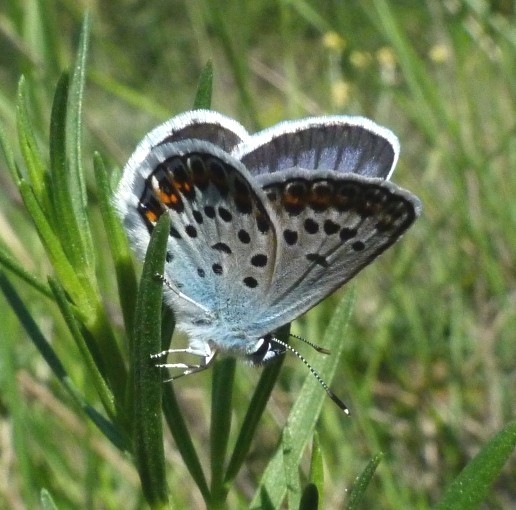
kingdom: Animalia
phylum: Arthropoda
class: Insecta
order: Lepidoptera
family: Lycaenidae
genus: Plebejus
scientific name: Plebejus argus
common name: Silver-studded blue
